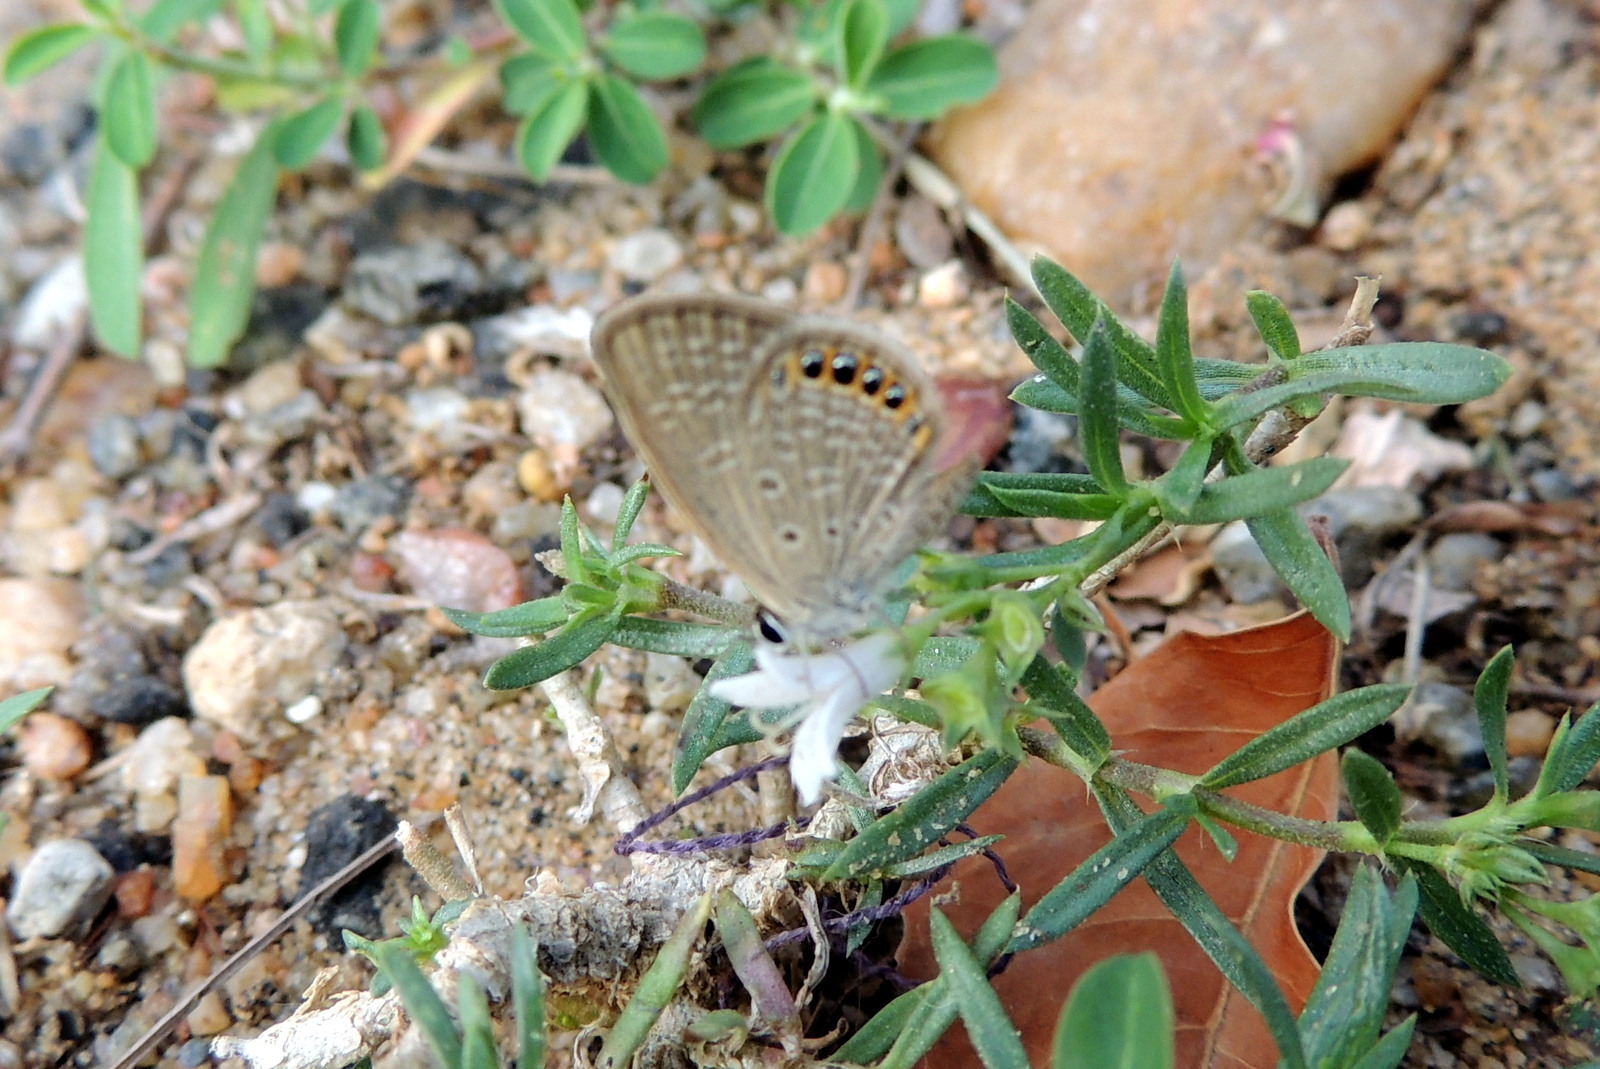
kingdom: Animalia
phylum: Arthropoda
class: Insecta
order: Lepidoptera
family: Lycaenidae
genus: Freyeria
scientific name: Freyeria putli
